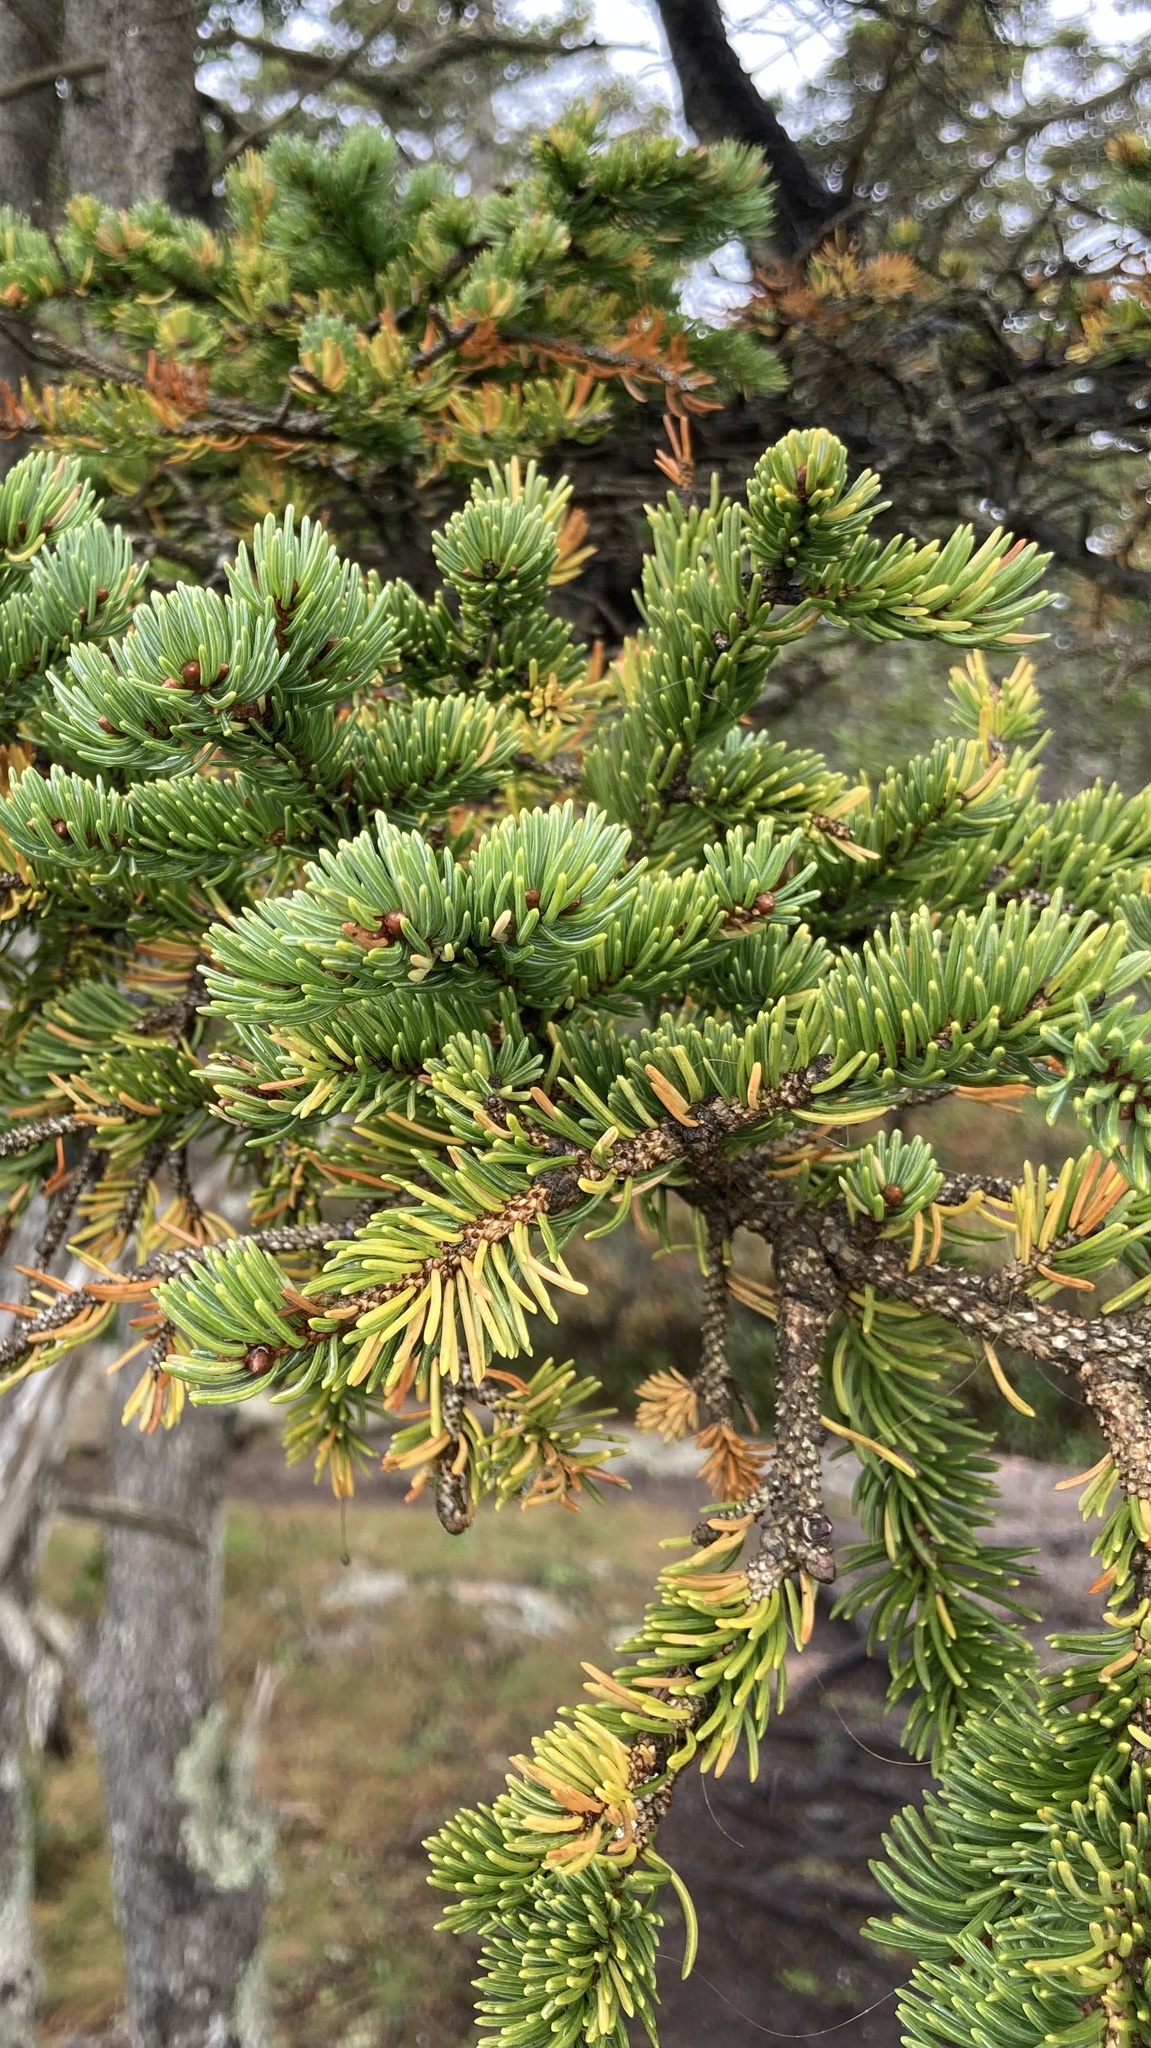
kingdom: Plantae
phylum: Tracheophyta
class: Pinopsida
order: Pinales
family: Pinaceae
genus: Picea
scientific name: Picea glauca
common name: White spruce
